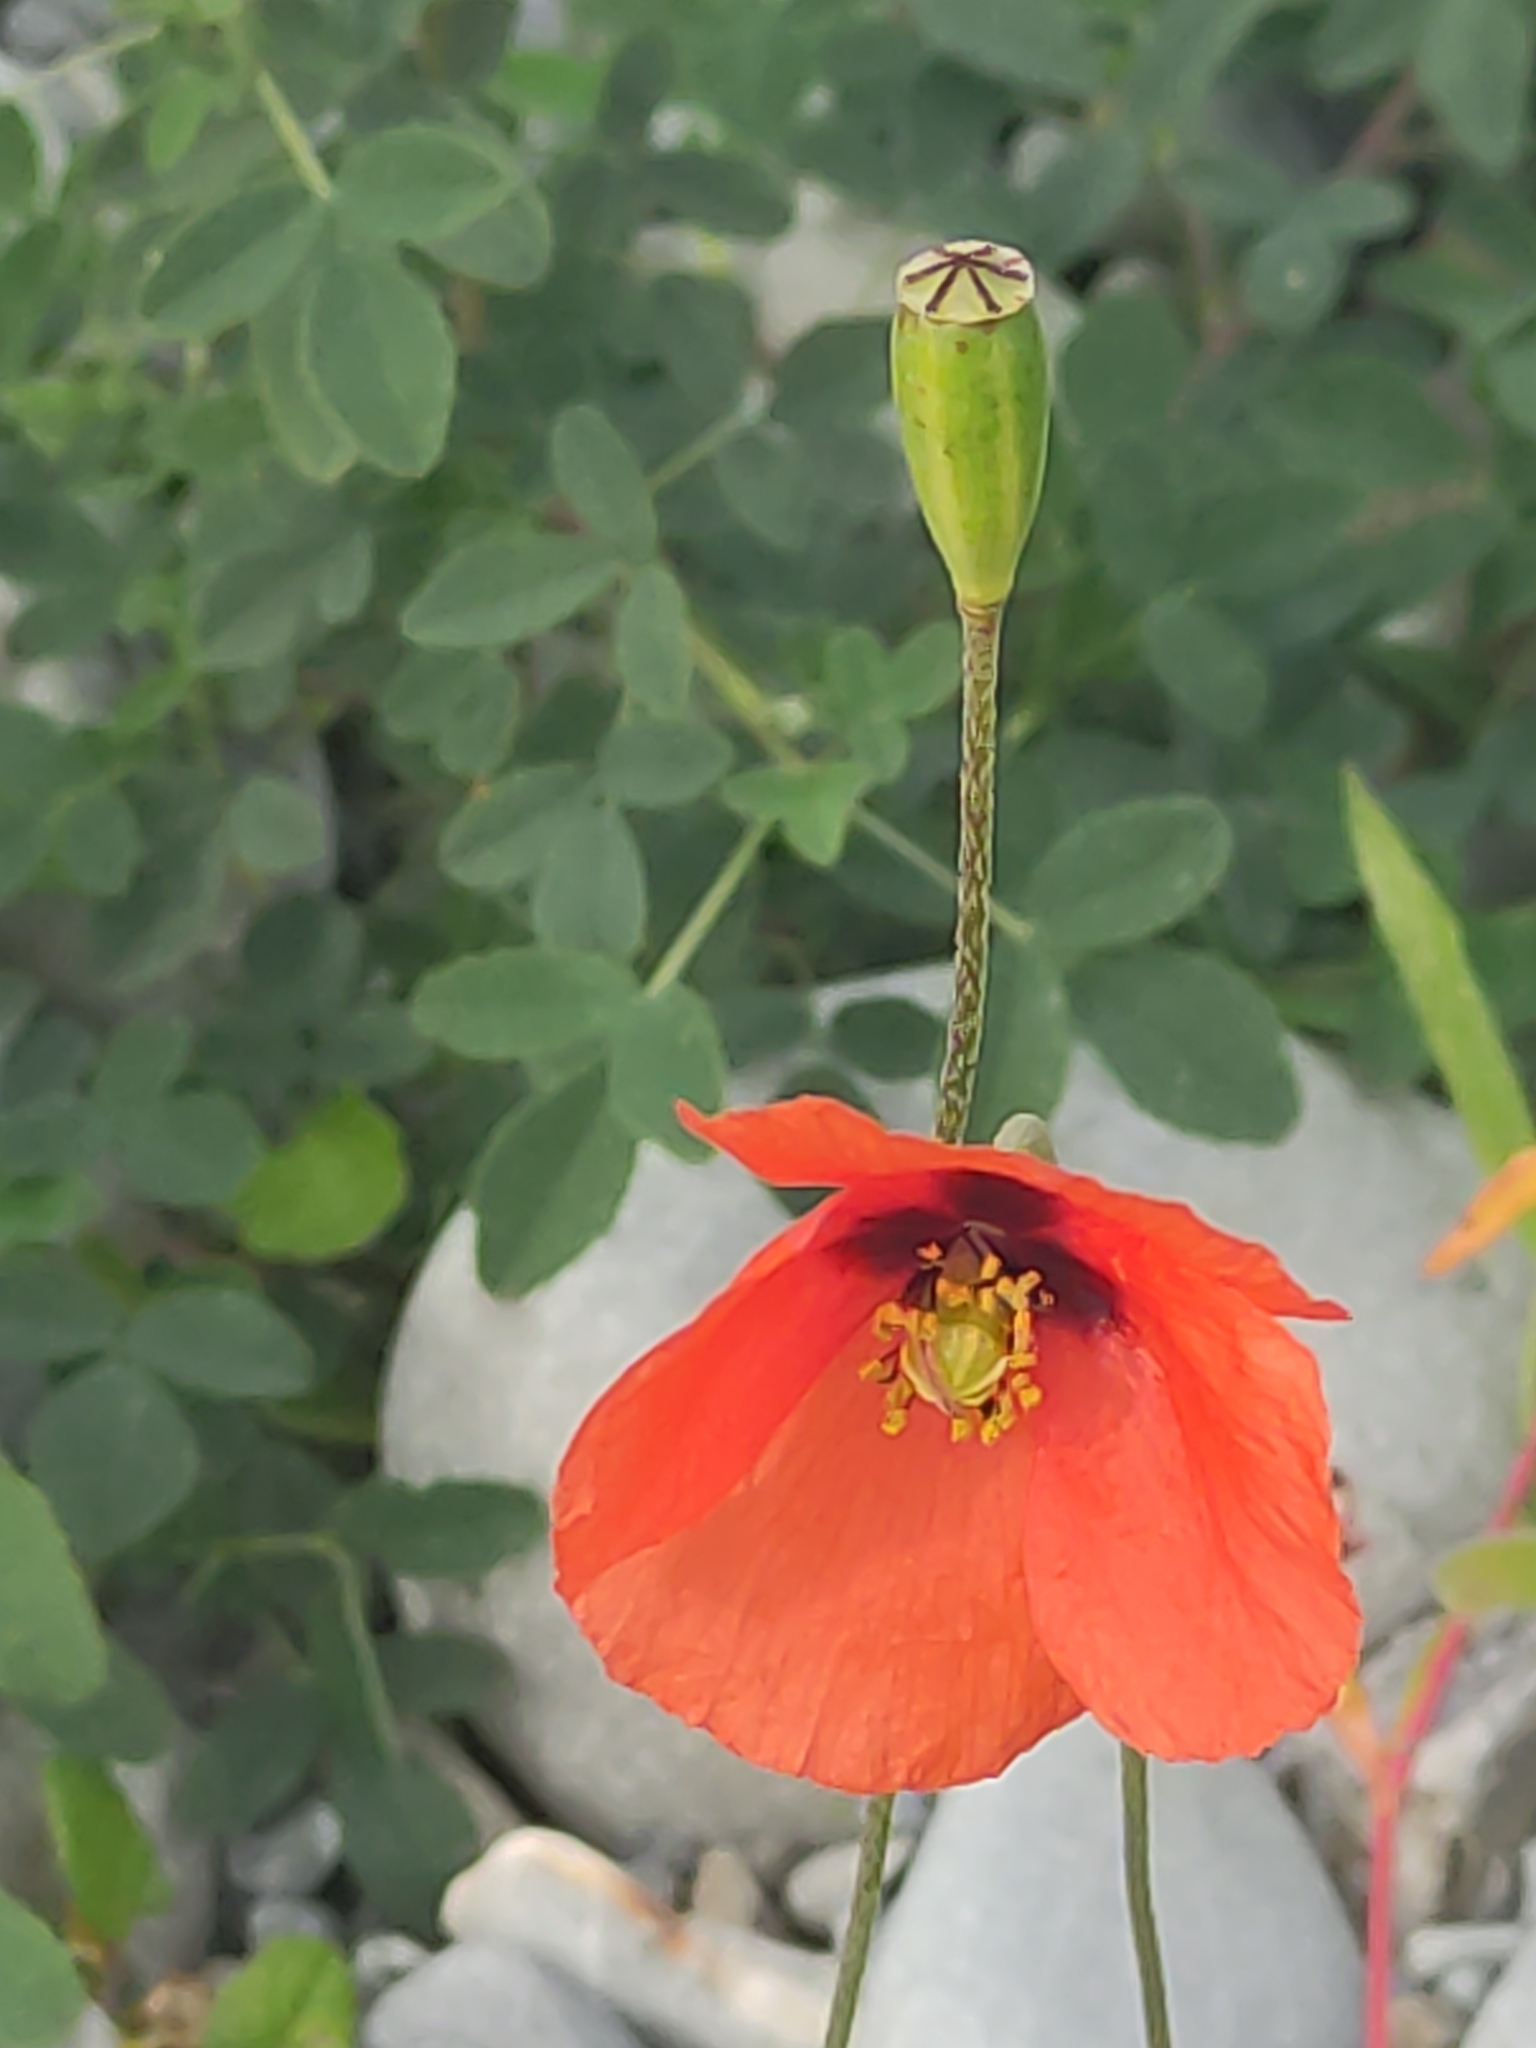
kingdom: Plantae
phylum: Tracheophyta
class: Magnoliopsida
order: Ranunculales
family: Papaveraceae
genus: Papaver
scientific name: Papaver rhoeas
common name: Corn poppy
